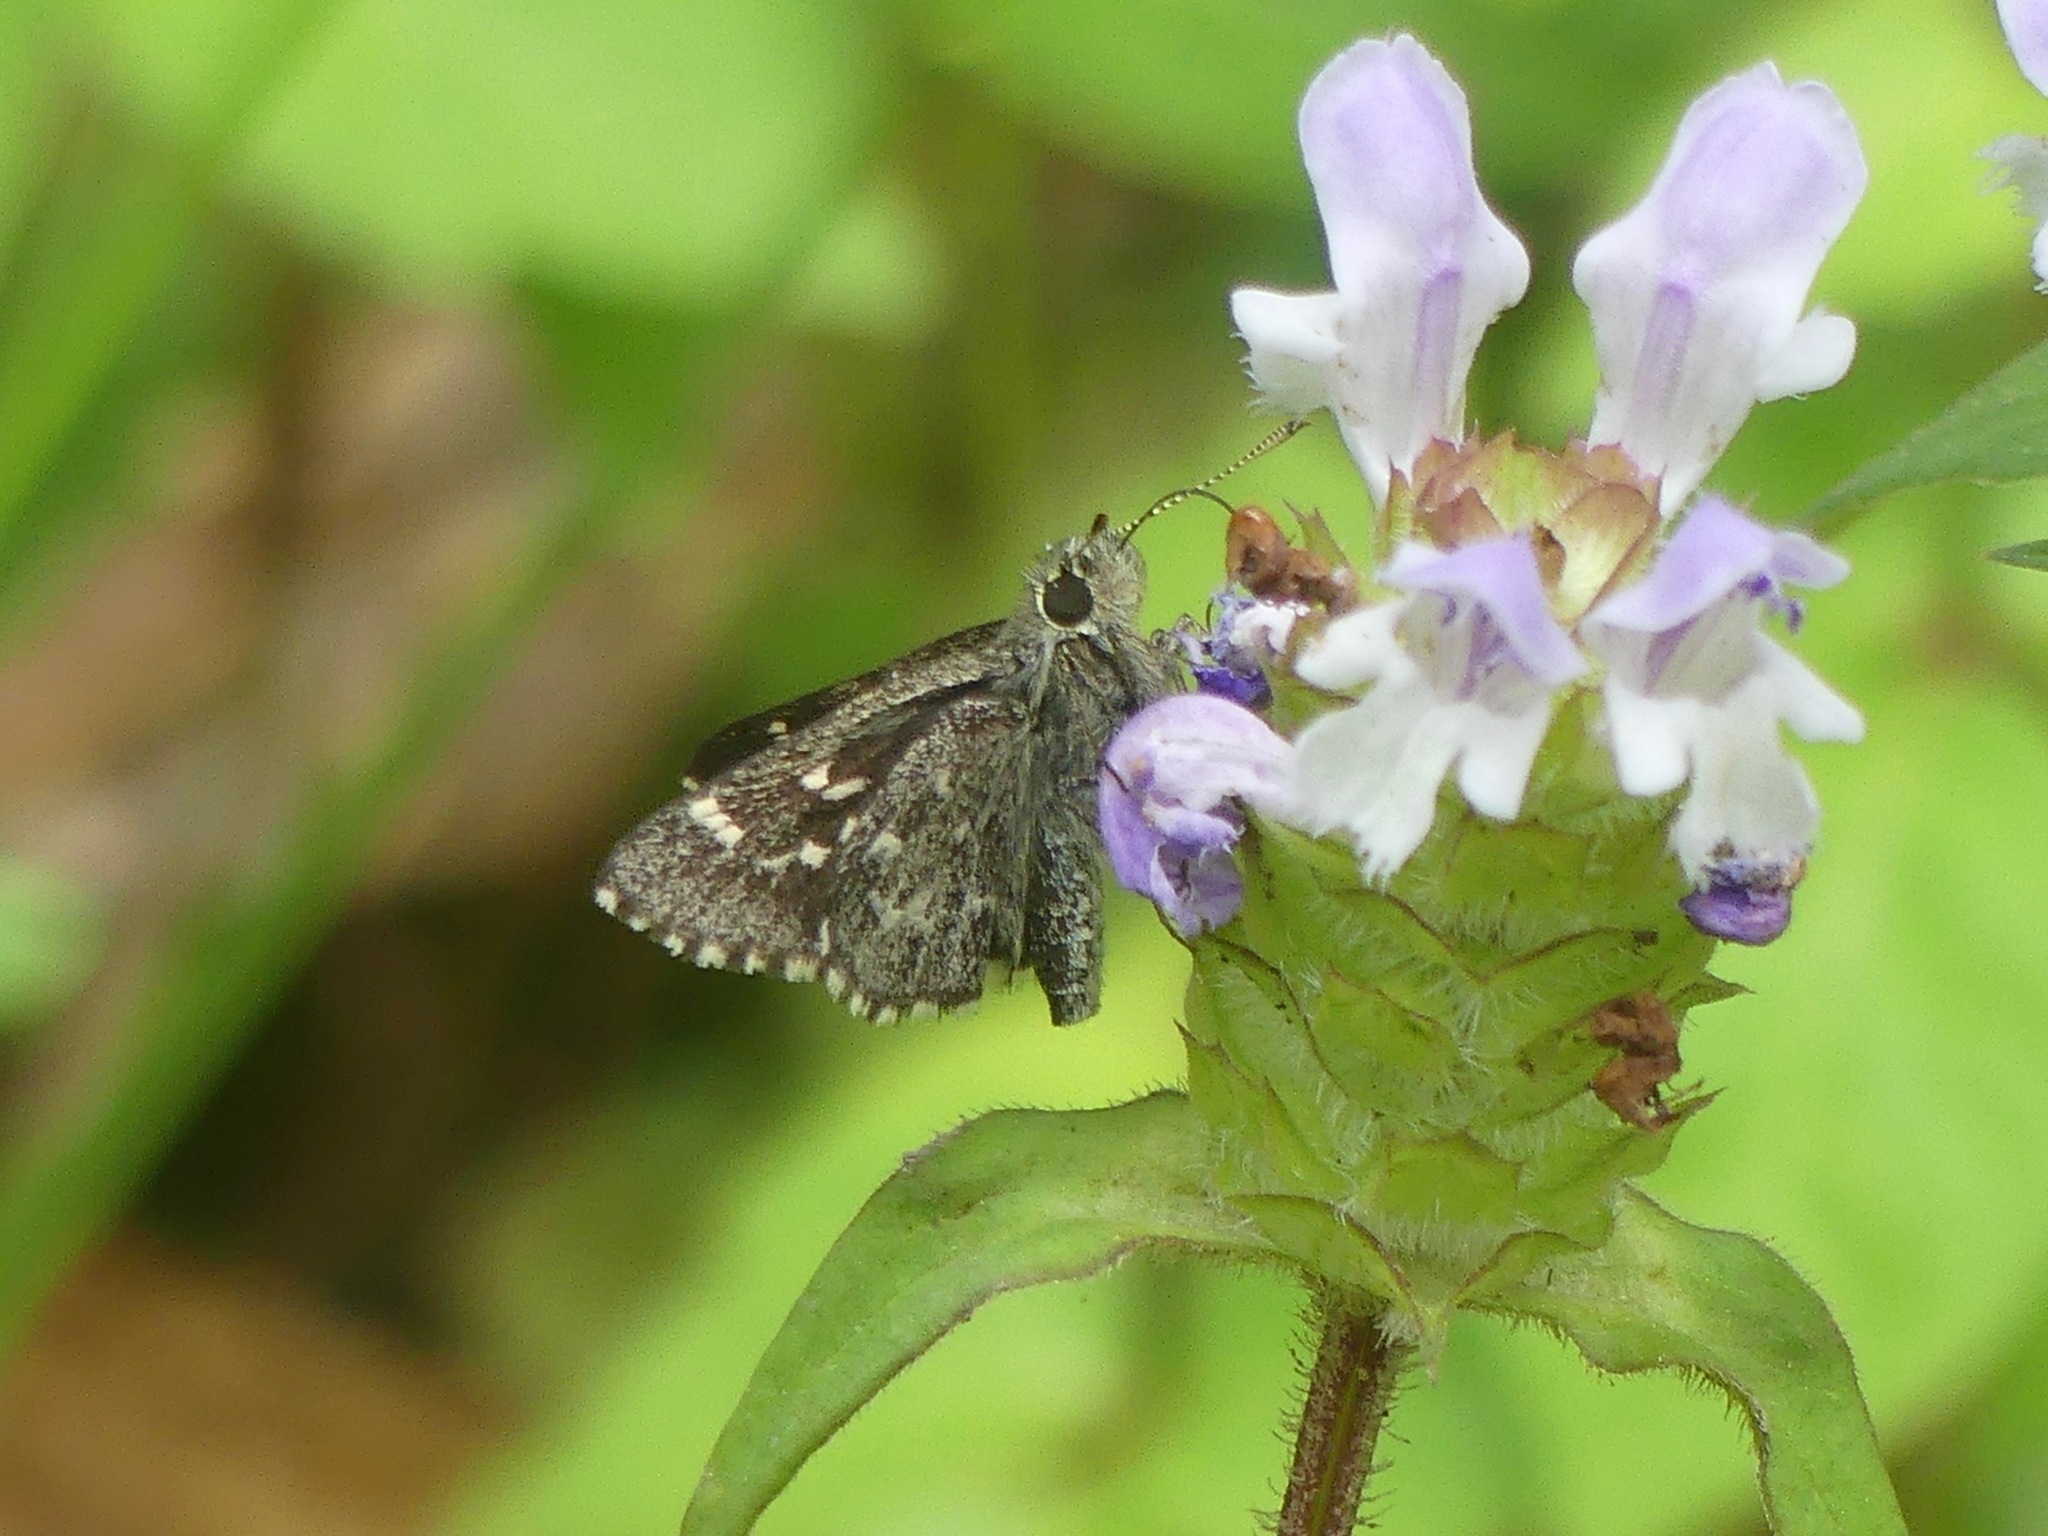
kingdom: Animalia
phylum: Arthropoda
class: Insecta
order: Lepidoptera
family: Hesperiidae
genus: Mastor
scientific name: Mastor hegon
